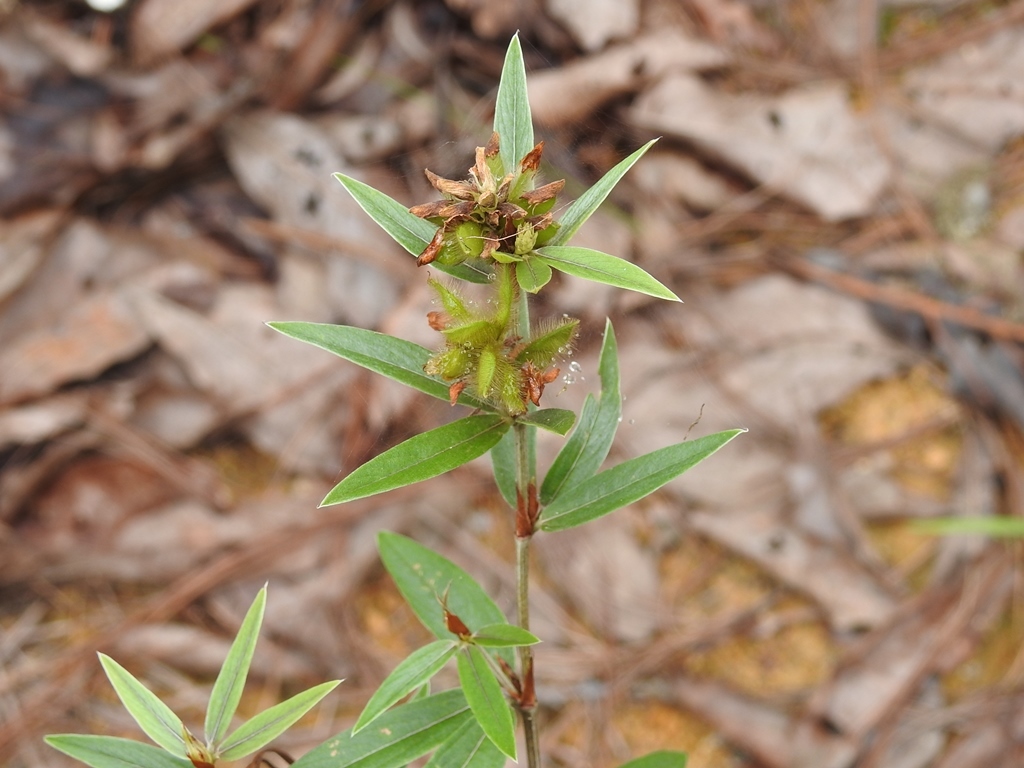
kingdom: Plantae
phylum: Tracheophyta
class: Magnoliopsida
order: Fabales
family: Fabaceae
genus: Eriosema
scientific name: Eriosema crinitum
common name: Sand pea
